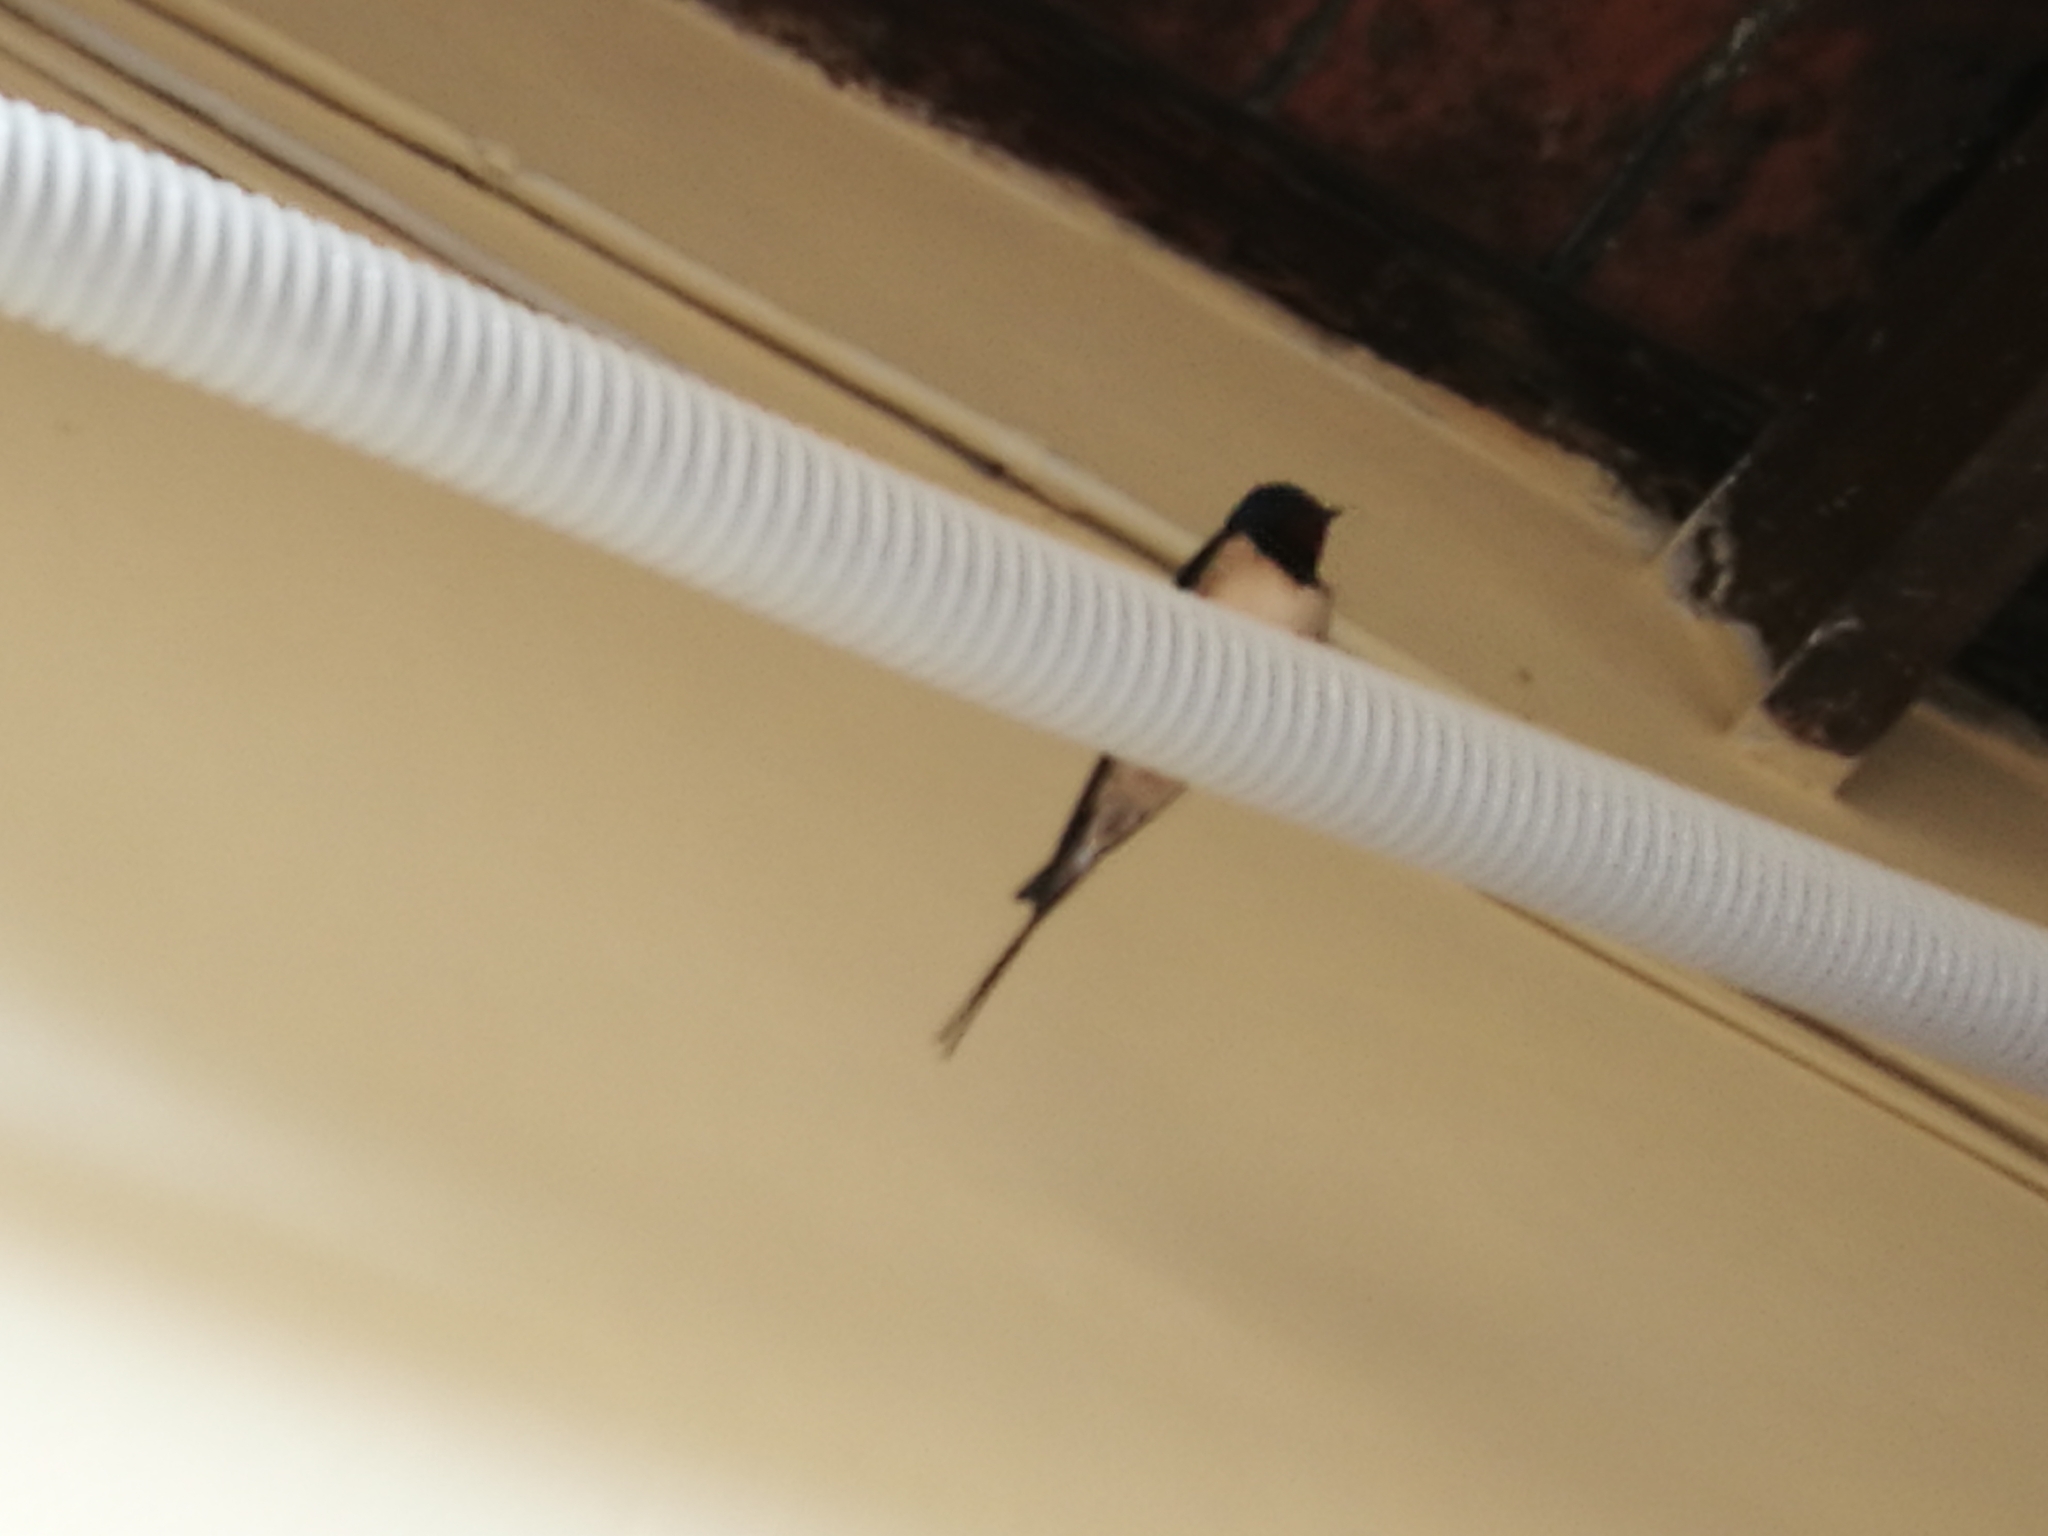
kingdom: Animalia
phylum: Chordata
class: Aves
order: Passeriformes
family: Hirundinidae
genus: Hirundo
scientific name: Hirundo rustica
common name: Barn swallow
